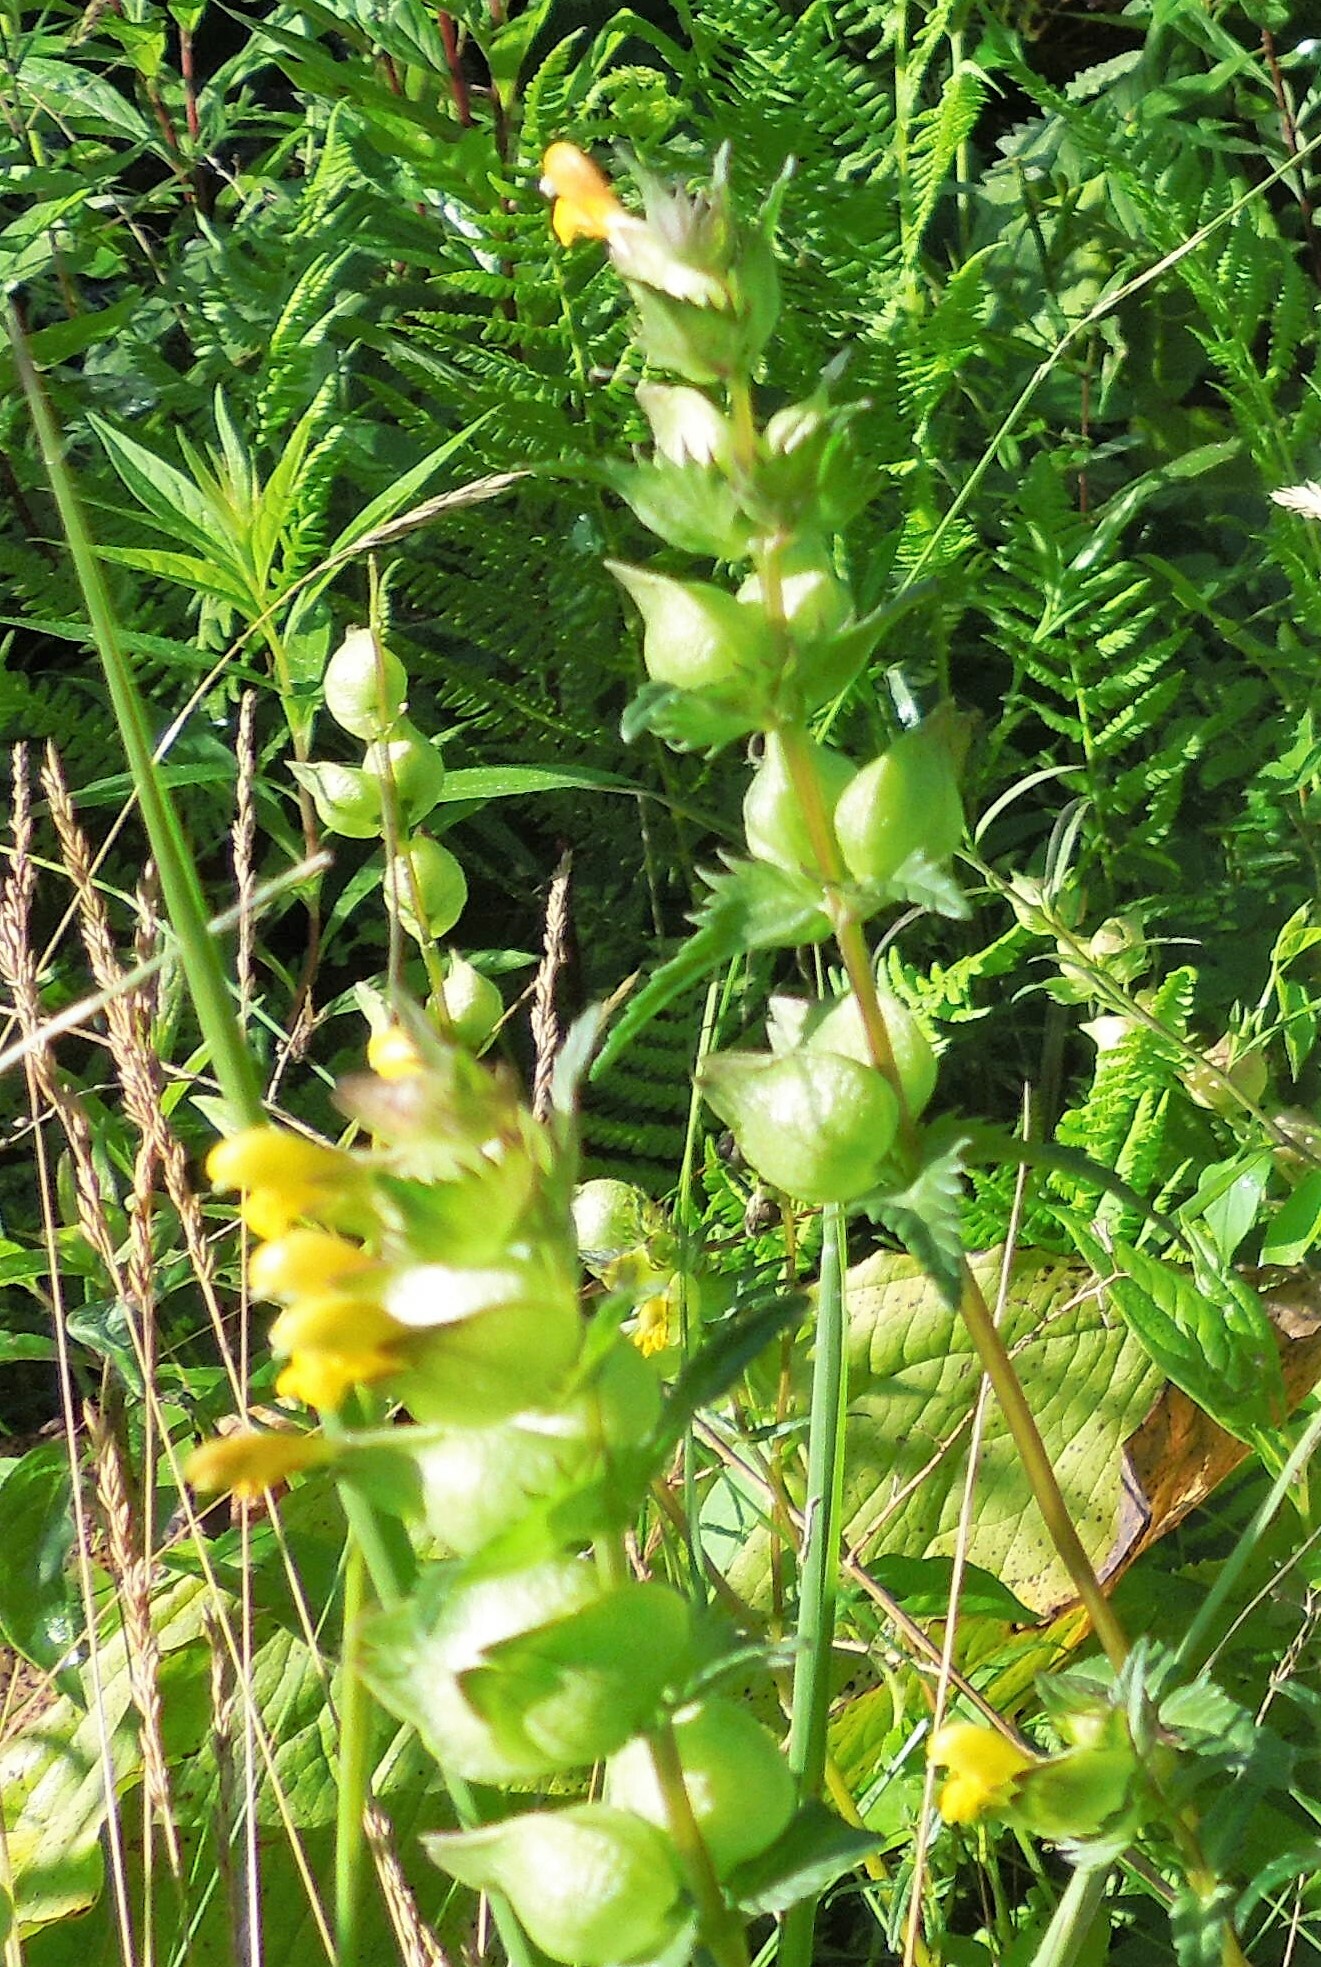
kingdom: Plantae
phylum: Tracheophyta
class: Magnoliopsida
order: Lamiales
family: Orobanchaceae
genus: Rhinanthus
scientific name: Rhinanthus minor
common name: Yellow-rattle
